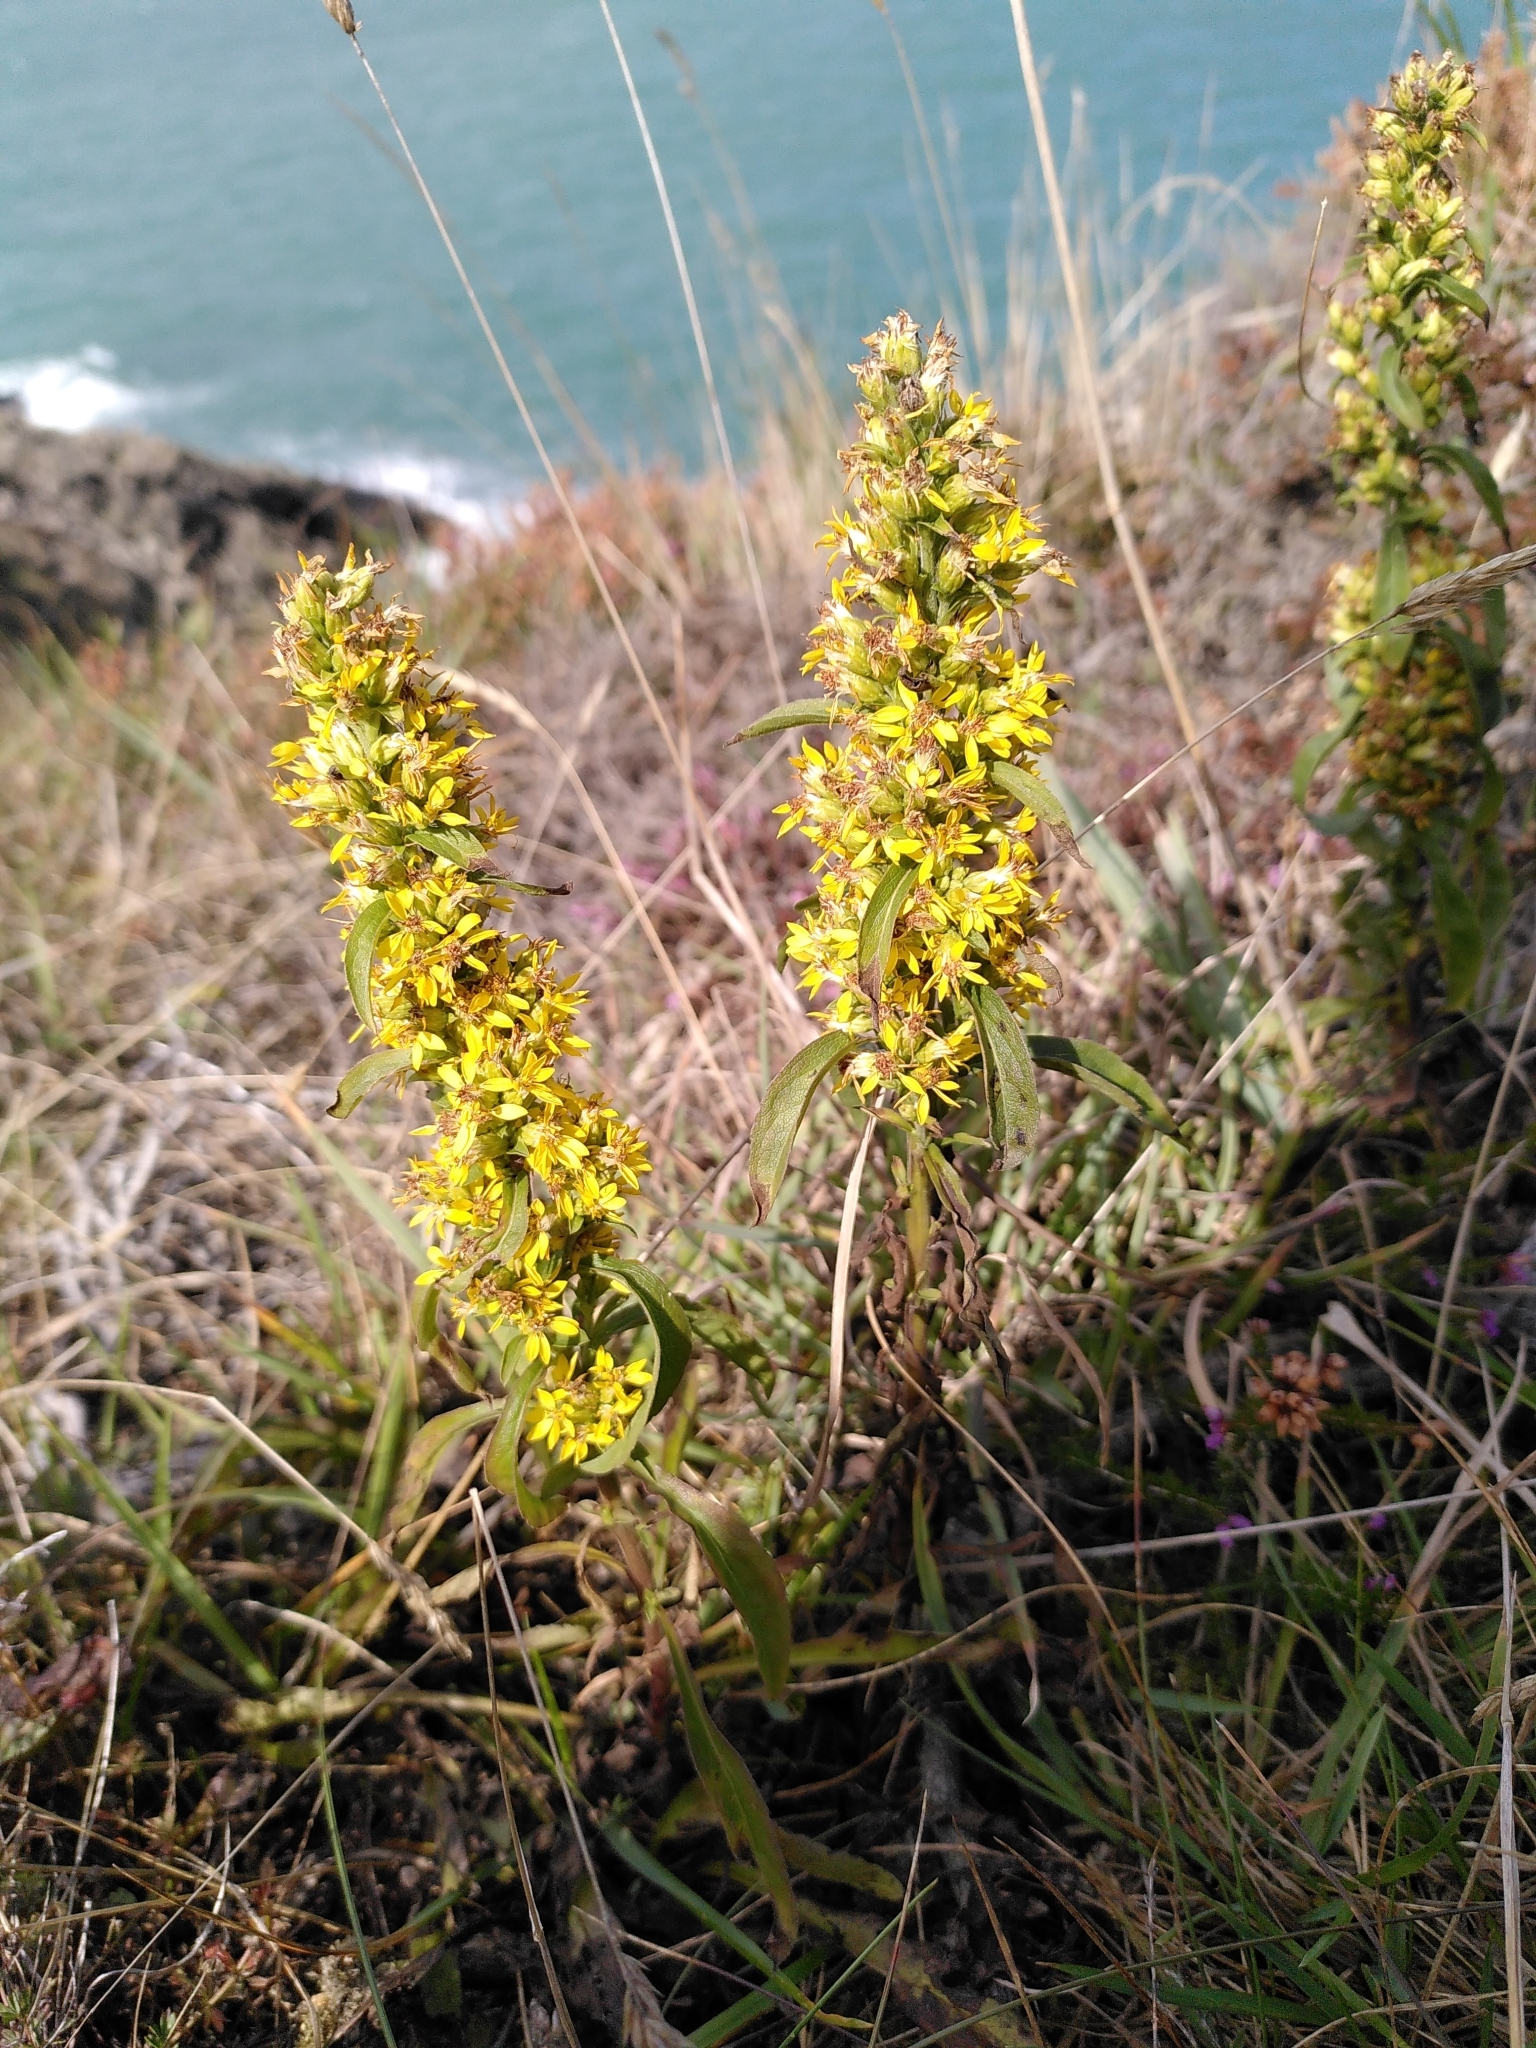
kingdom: Plantae
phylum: Tracheophyta
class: Magnoliopsida
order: Asterales
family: Asteraceae
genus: Solidago
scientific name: Solidago virgaurea
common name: Goldenrod
